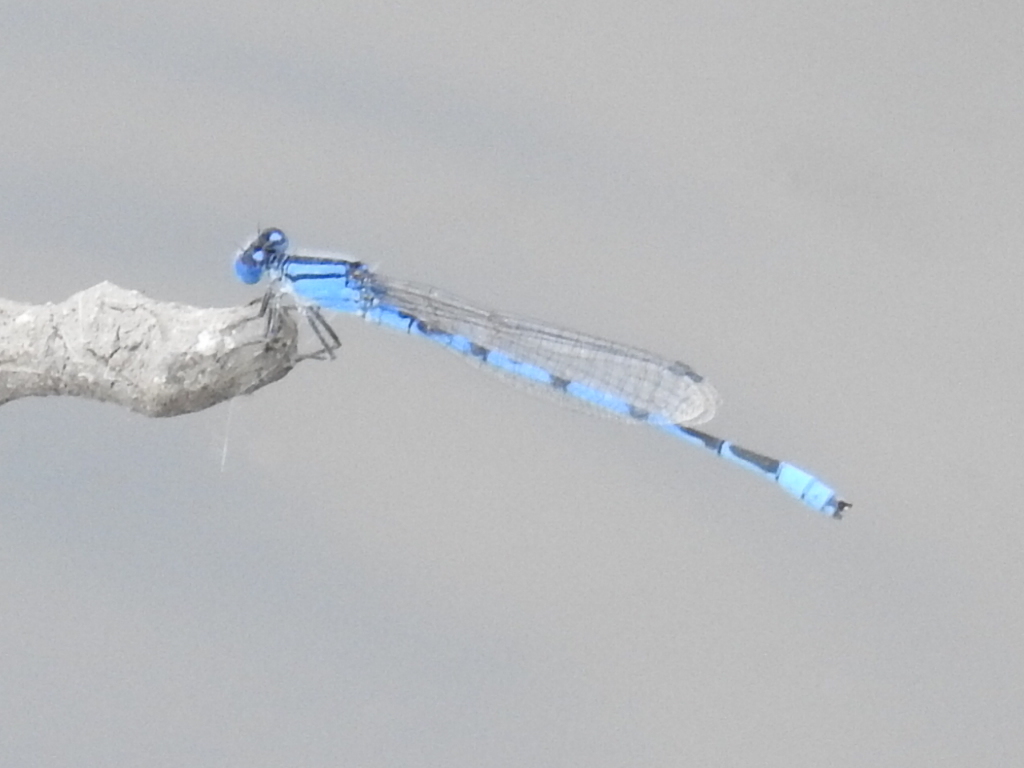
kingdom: Animalia
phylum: Arthropoda
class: Insecta
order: Odonata
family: Coenagrionidae
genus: Enallagma
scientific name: Enallagma civile
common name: Damselfly
